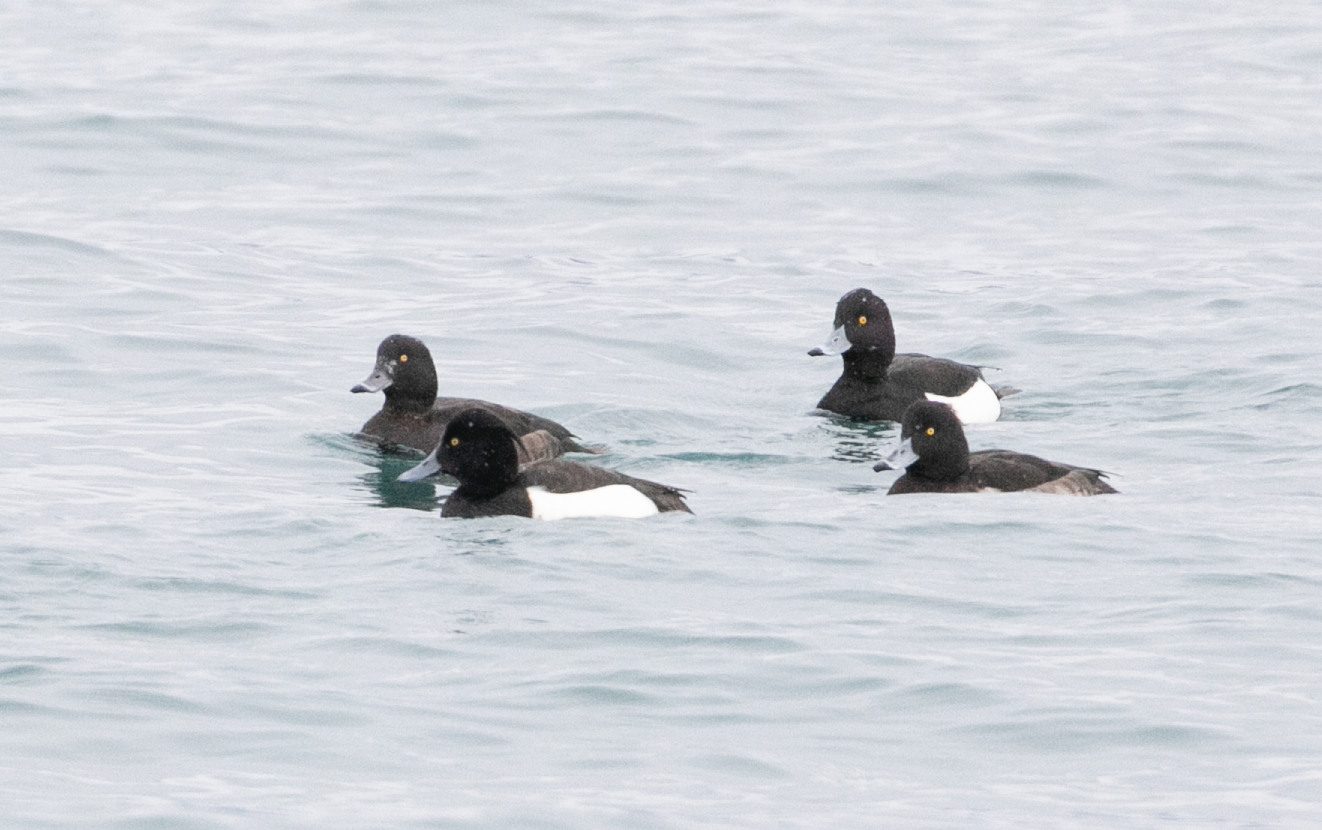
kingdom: Animalia
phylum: Chordata
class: Aves
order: Anseriformes
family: Anatidae
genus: Aythya
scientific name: Aythya fuligula
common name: Tufted duck
